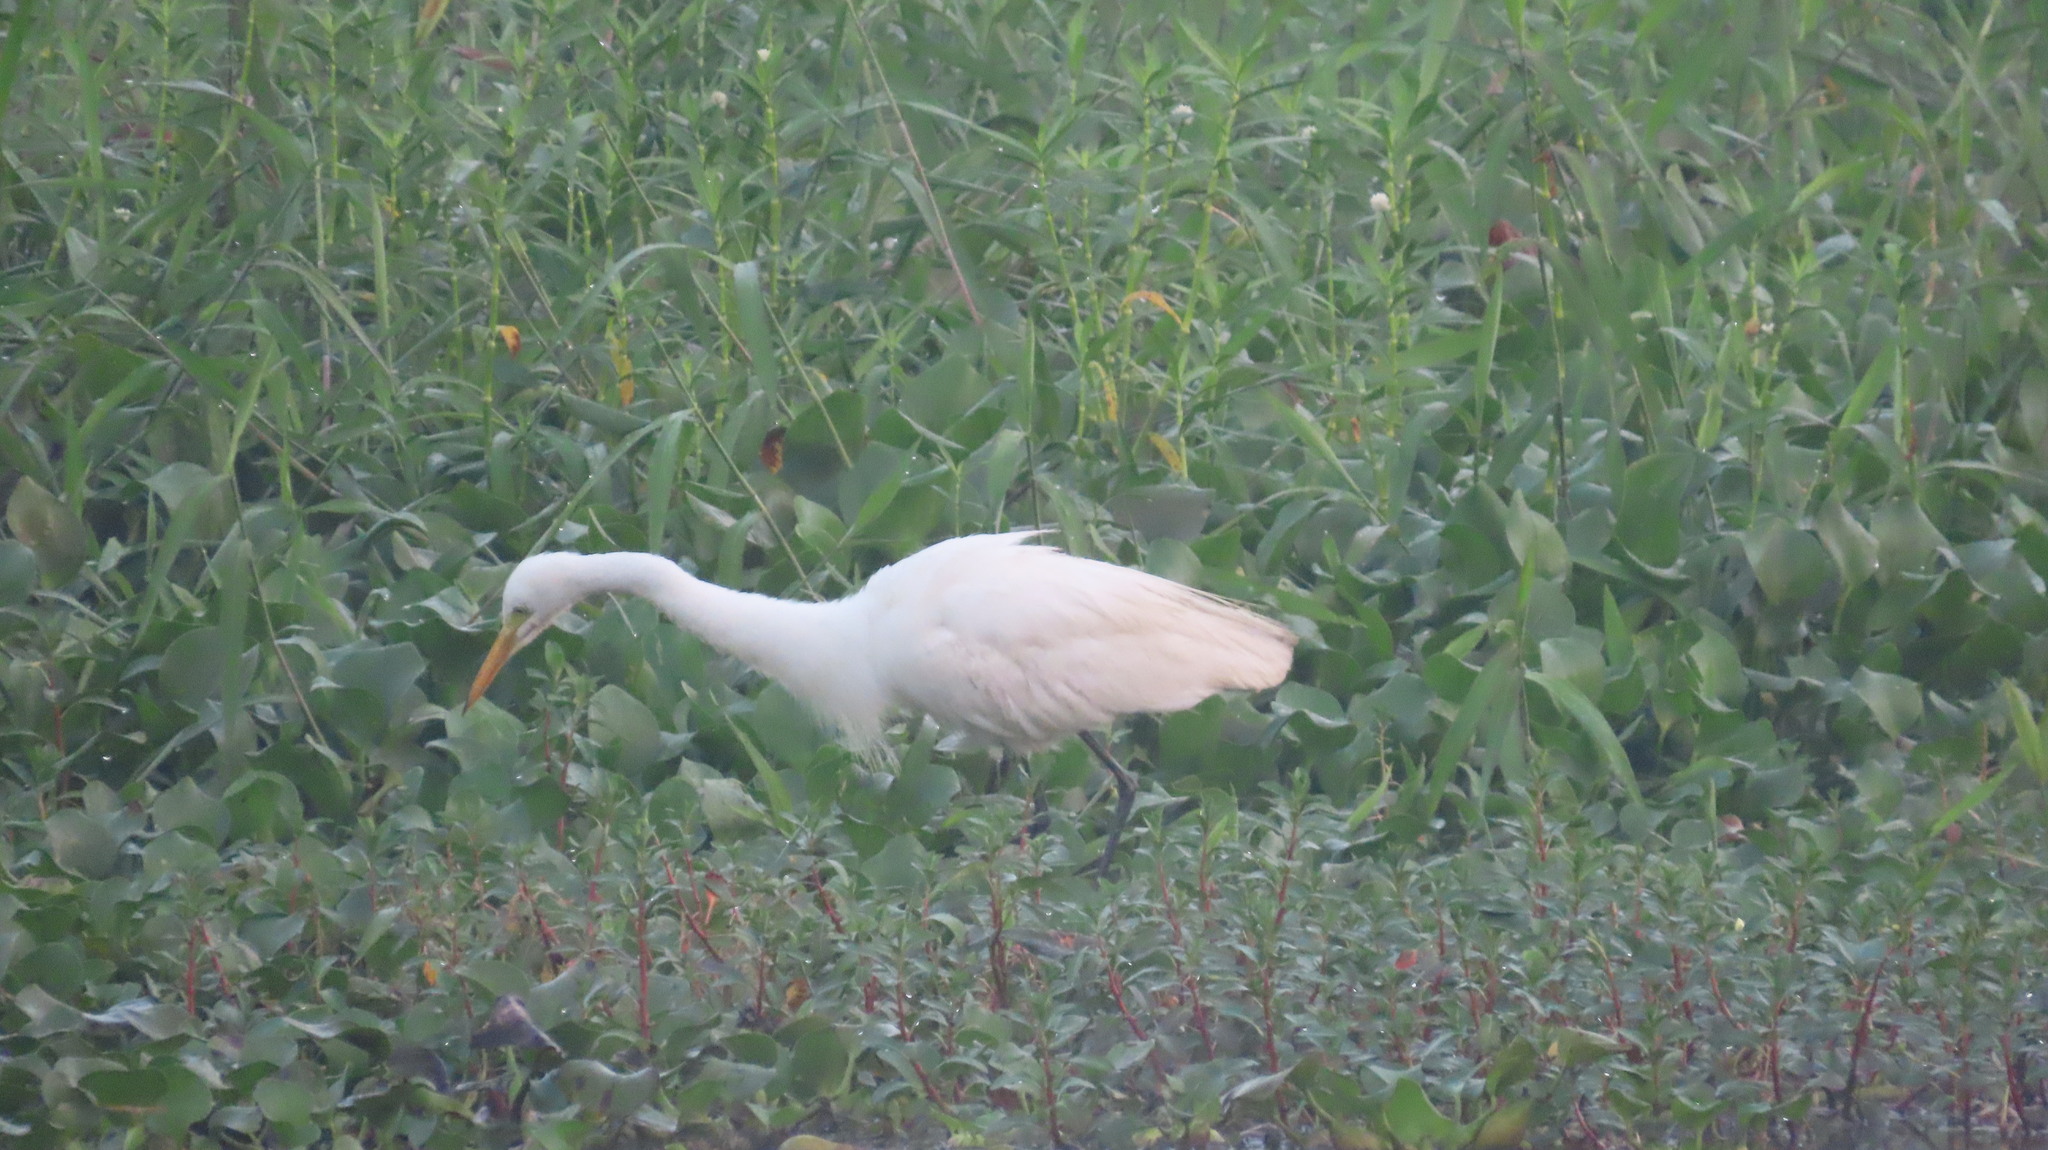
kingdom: Animalia
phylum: Chordata
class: Aves
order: Pelecaniformes
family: Ardeidae
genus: Egretta
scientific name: Egretta intermedia
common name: Intermediate egret
